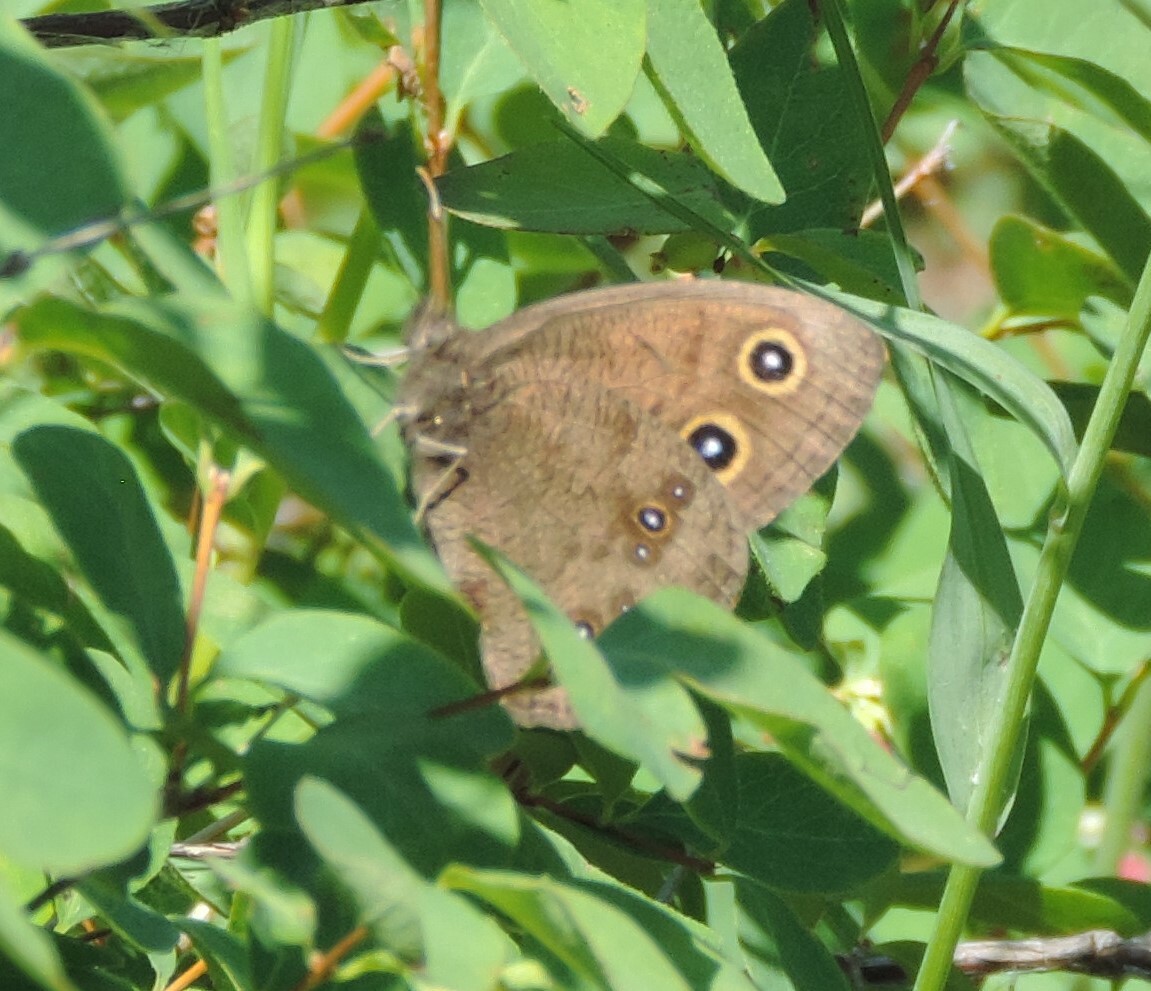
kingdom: Animalia
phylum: Arthropoda
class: Insecta
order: Lepidoptera
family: Nymphalidae
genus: Cercyonis
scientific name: Cercyonis pegala
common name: Common wood-nymph
